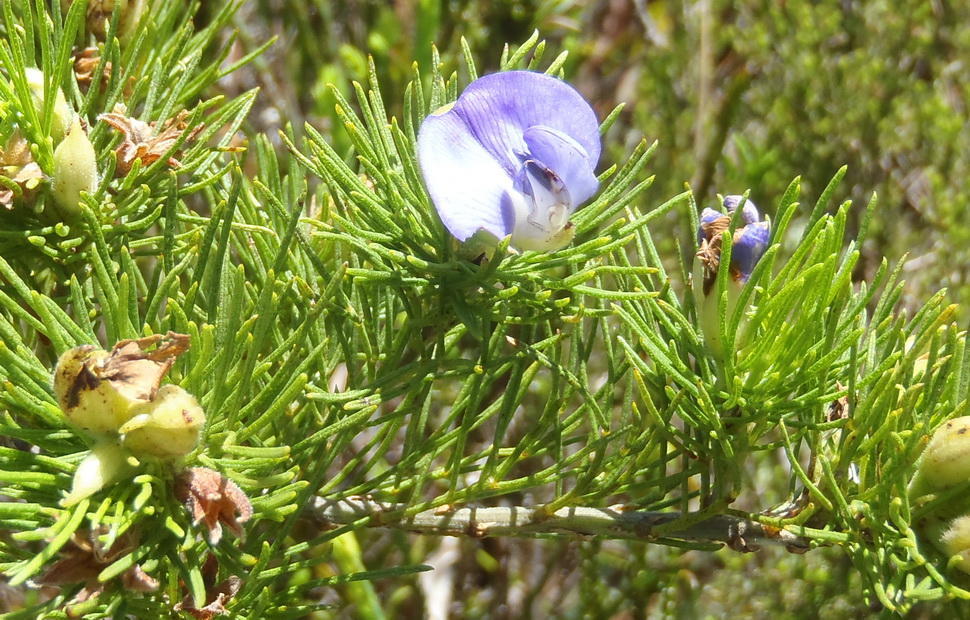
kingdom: Plantae
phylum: Tracheophyta
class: Magnoliopsida
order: Fabales
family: Fabaceae
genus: Psoralea
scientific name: Psoralea speciosa
